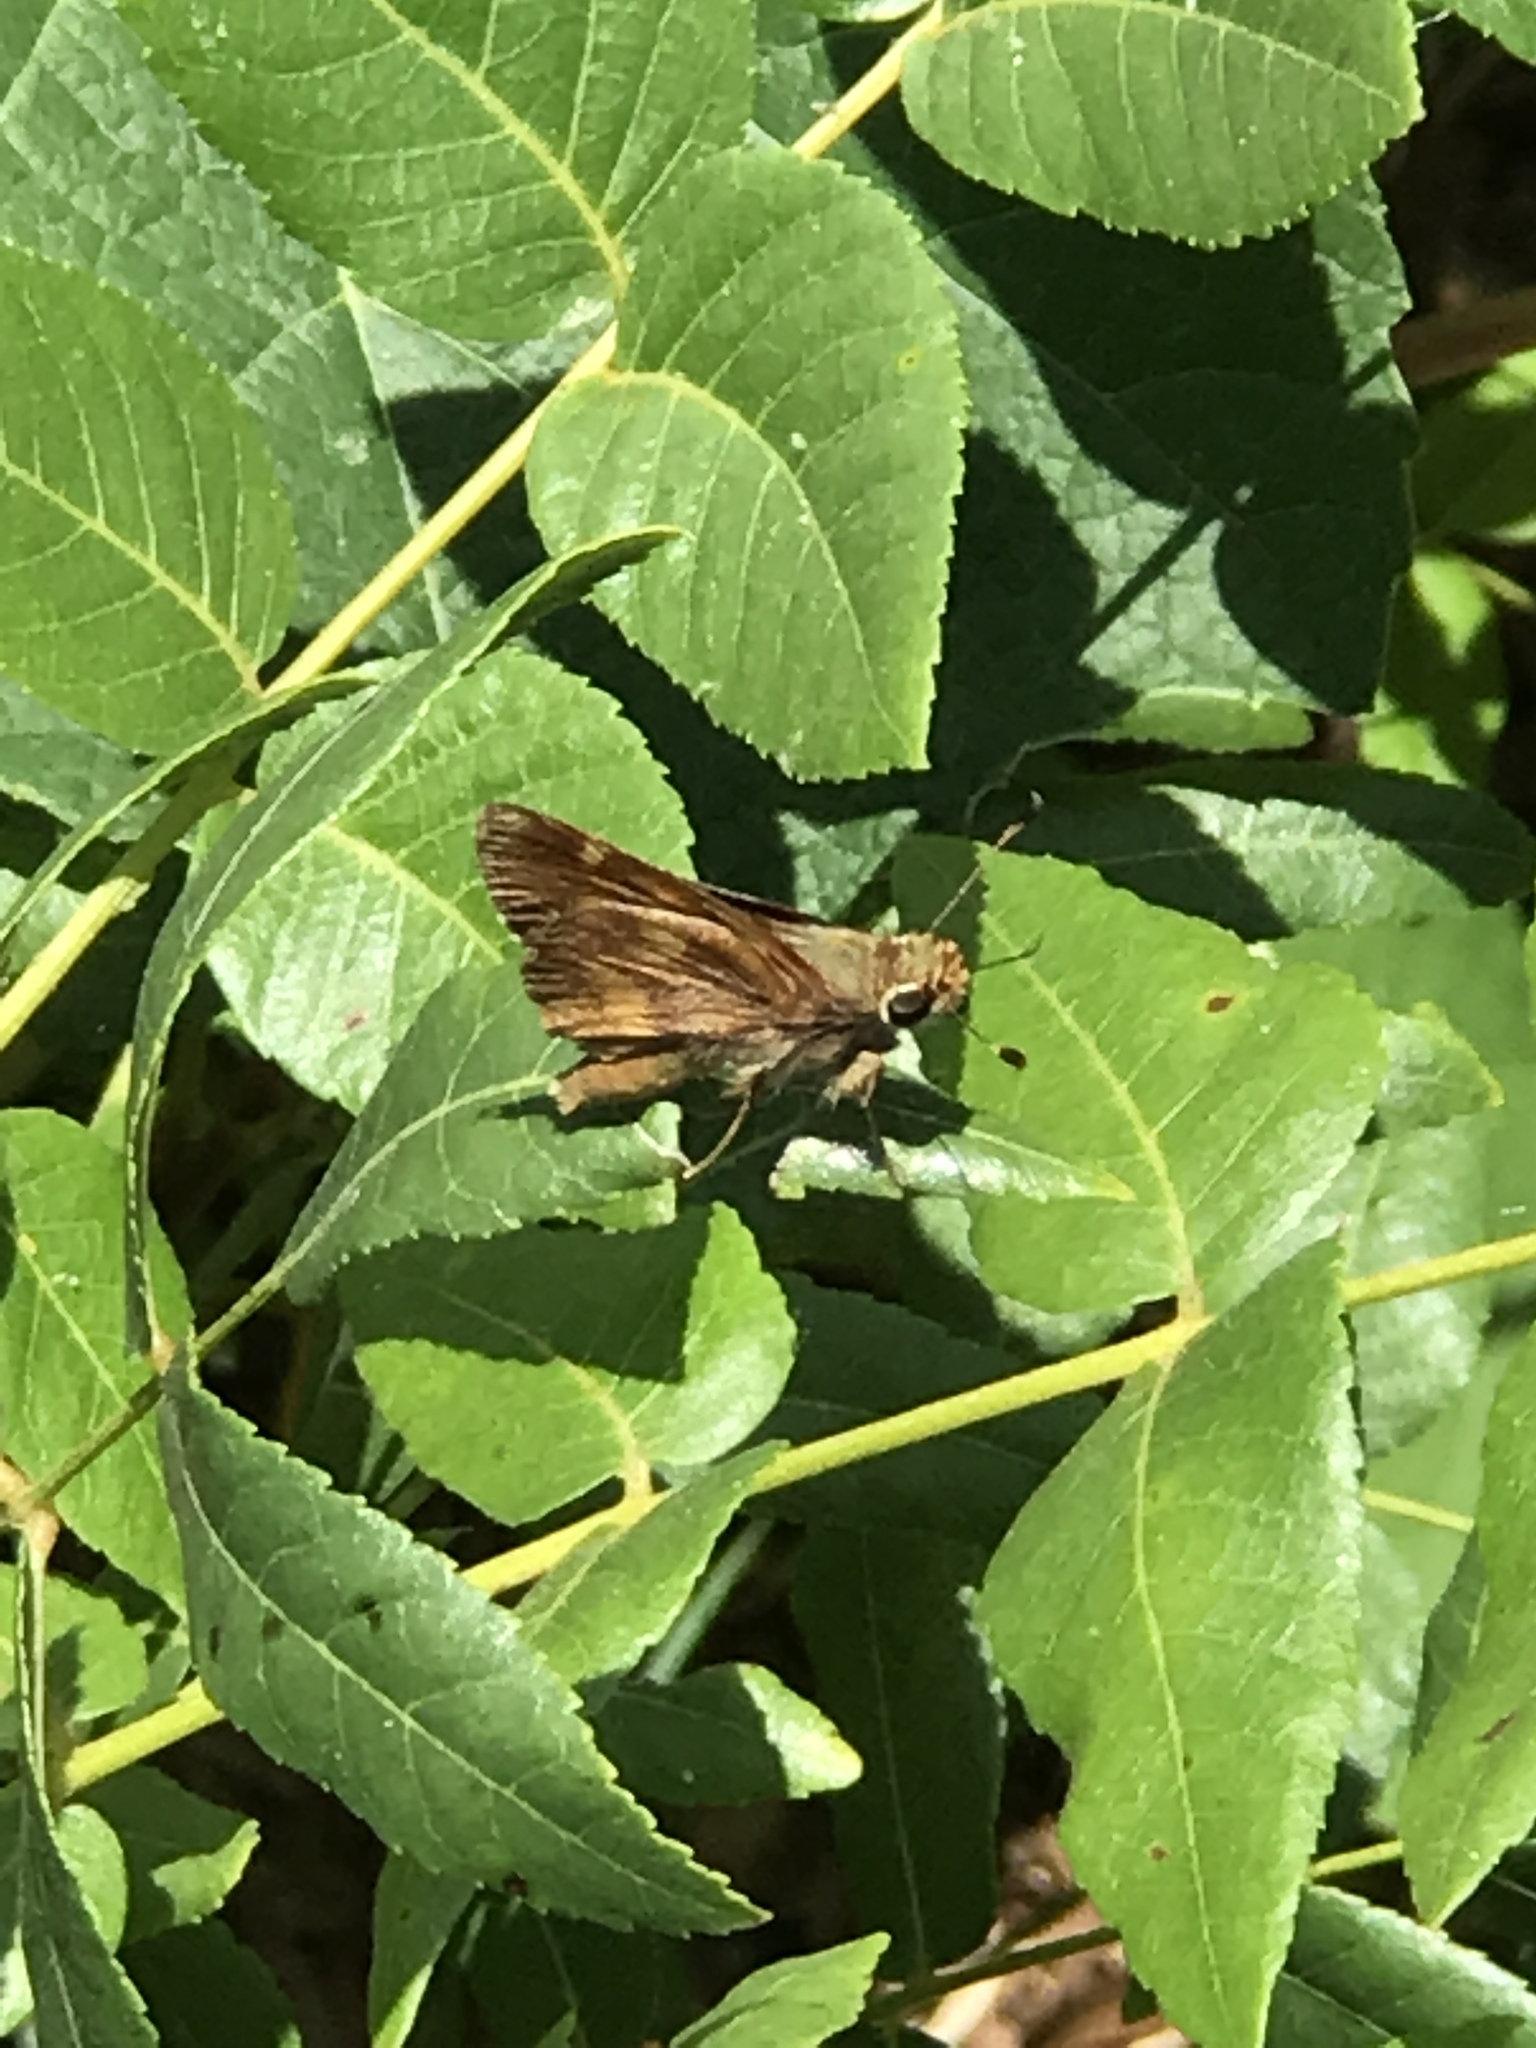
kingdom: Animalia
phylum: Arthropoda
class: Insecta
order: Lepidoptera
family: Hesperiidae
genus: Lon
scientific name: Lon melane
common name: Umber skipper
